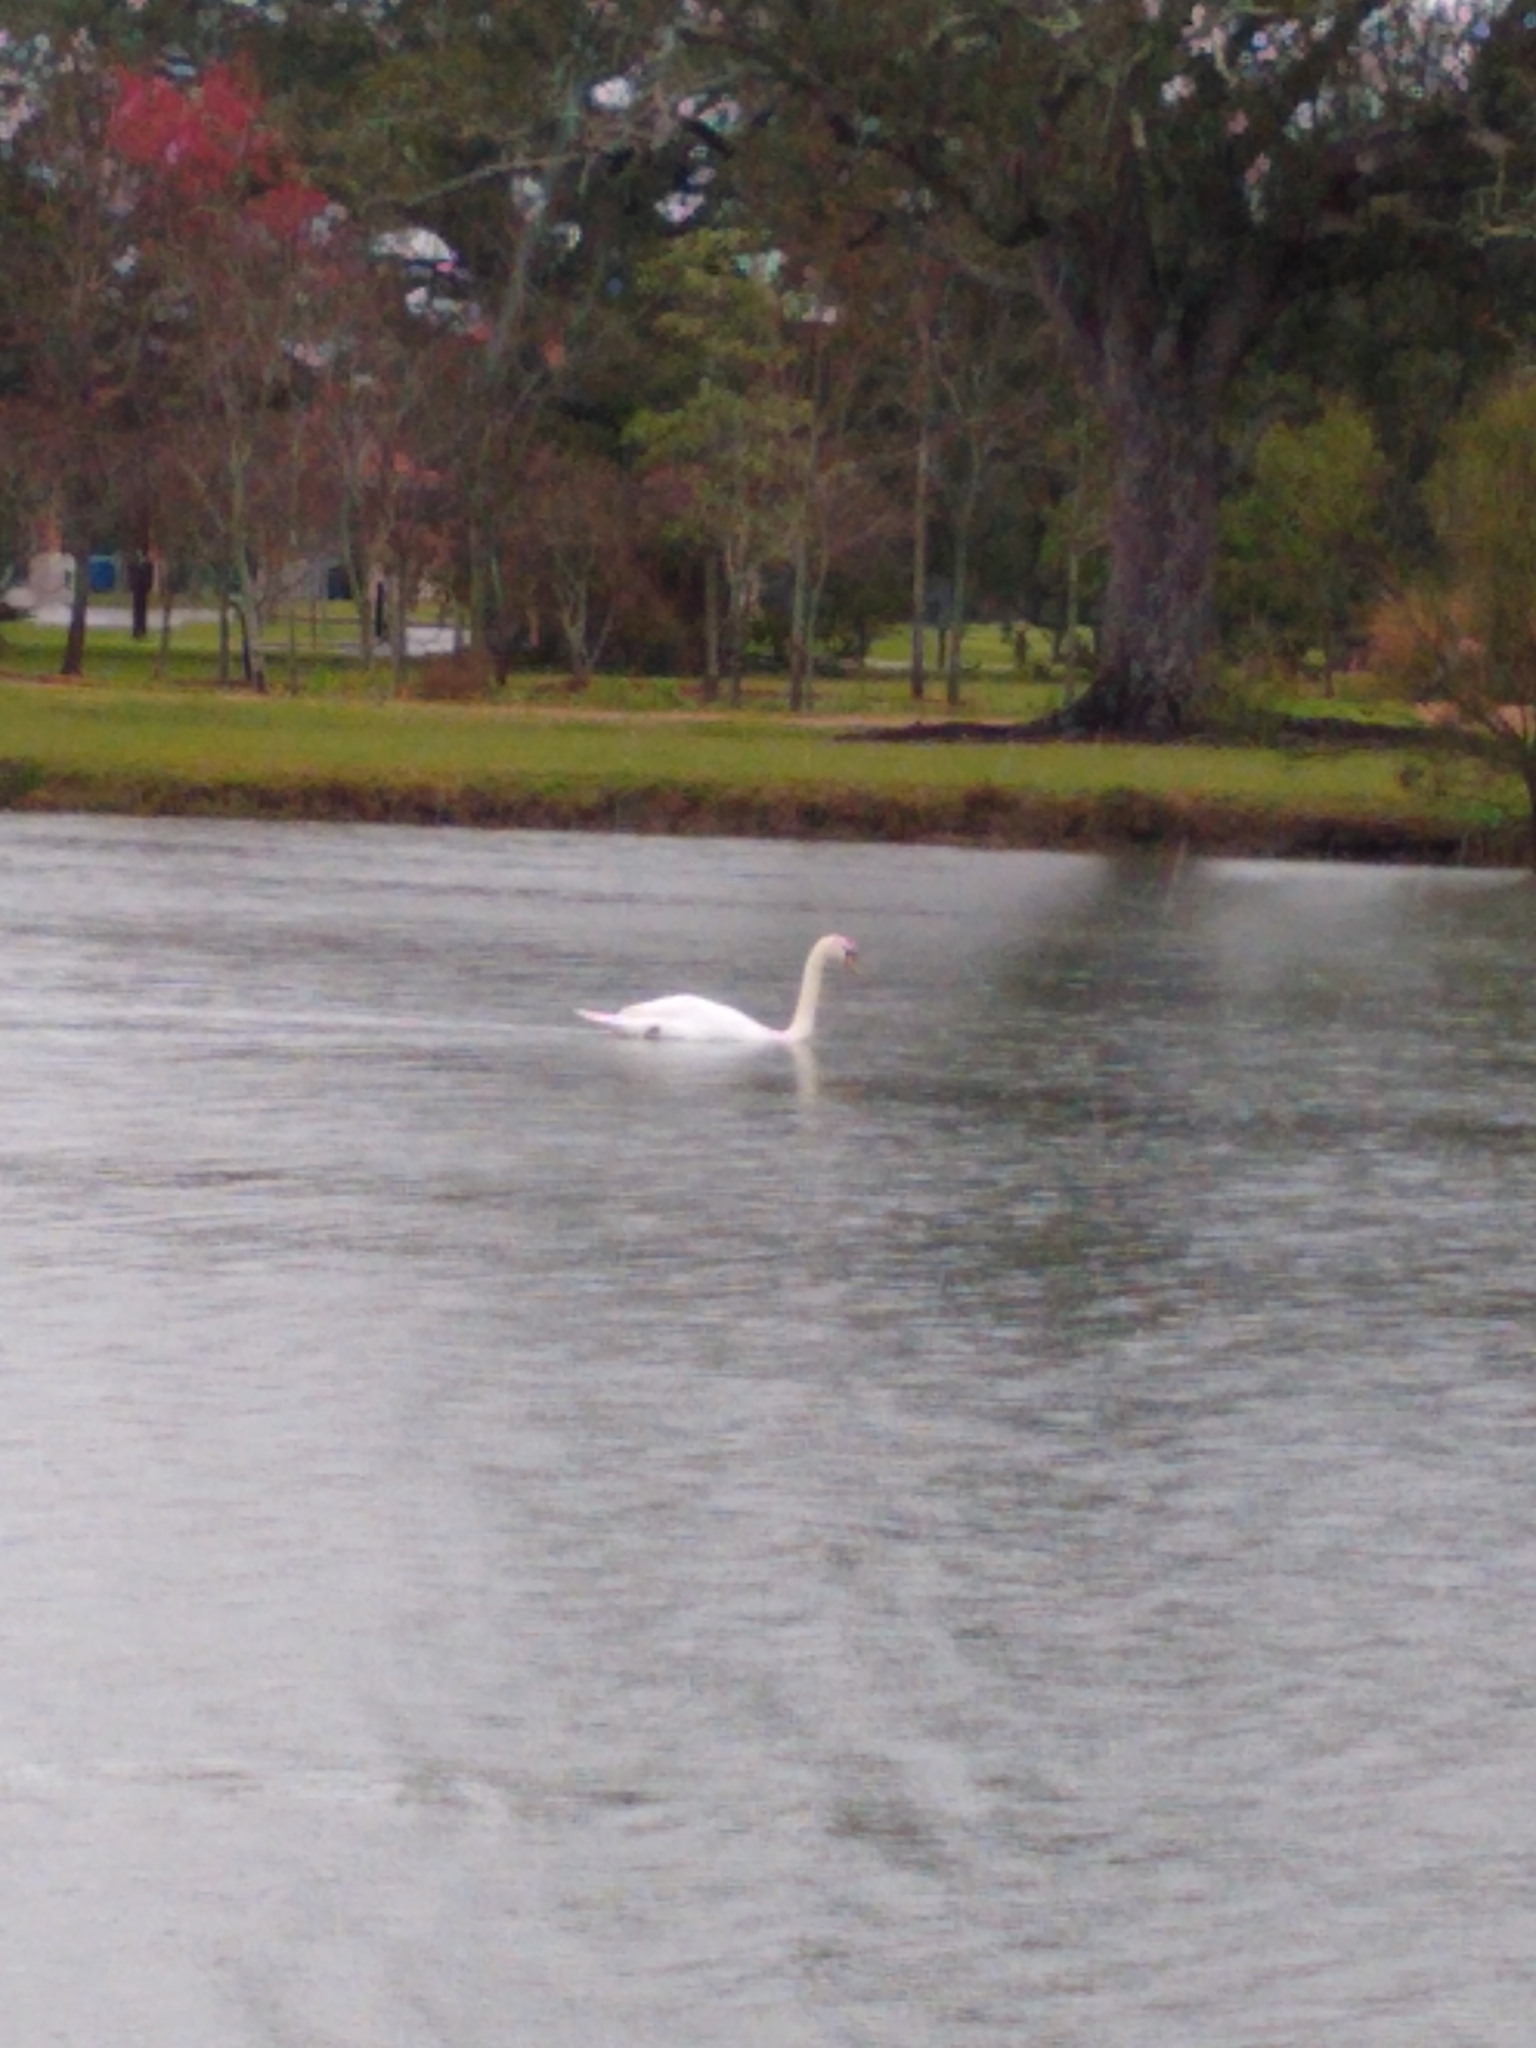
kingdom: Animalia
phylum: Chordata
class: Aves
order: Anseriformes
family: Anatidae
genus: Cygnus
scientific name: Cygnus olor
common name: Mute swan
